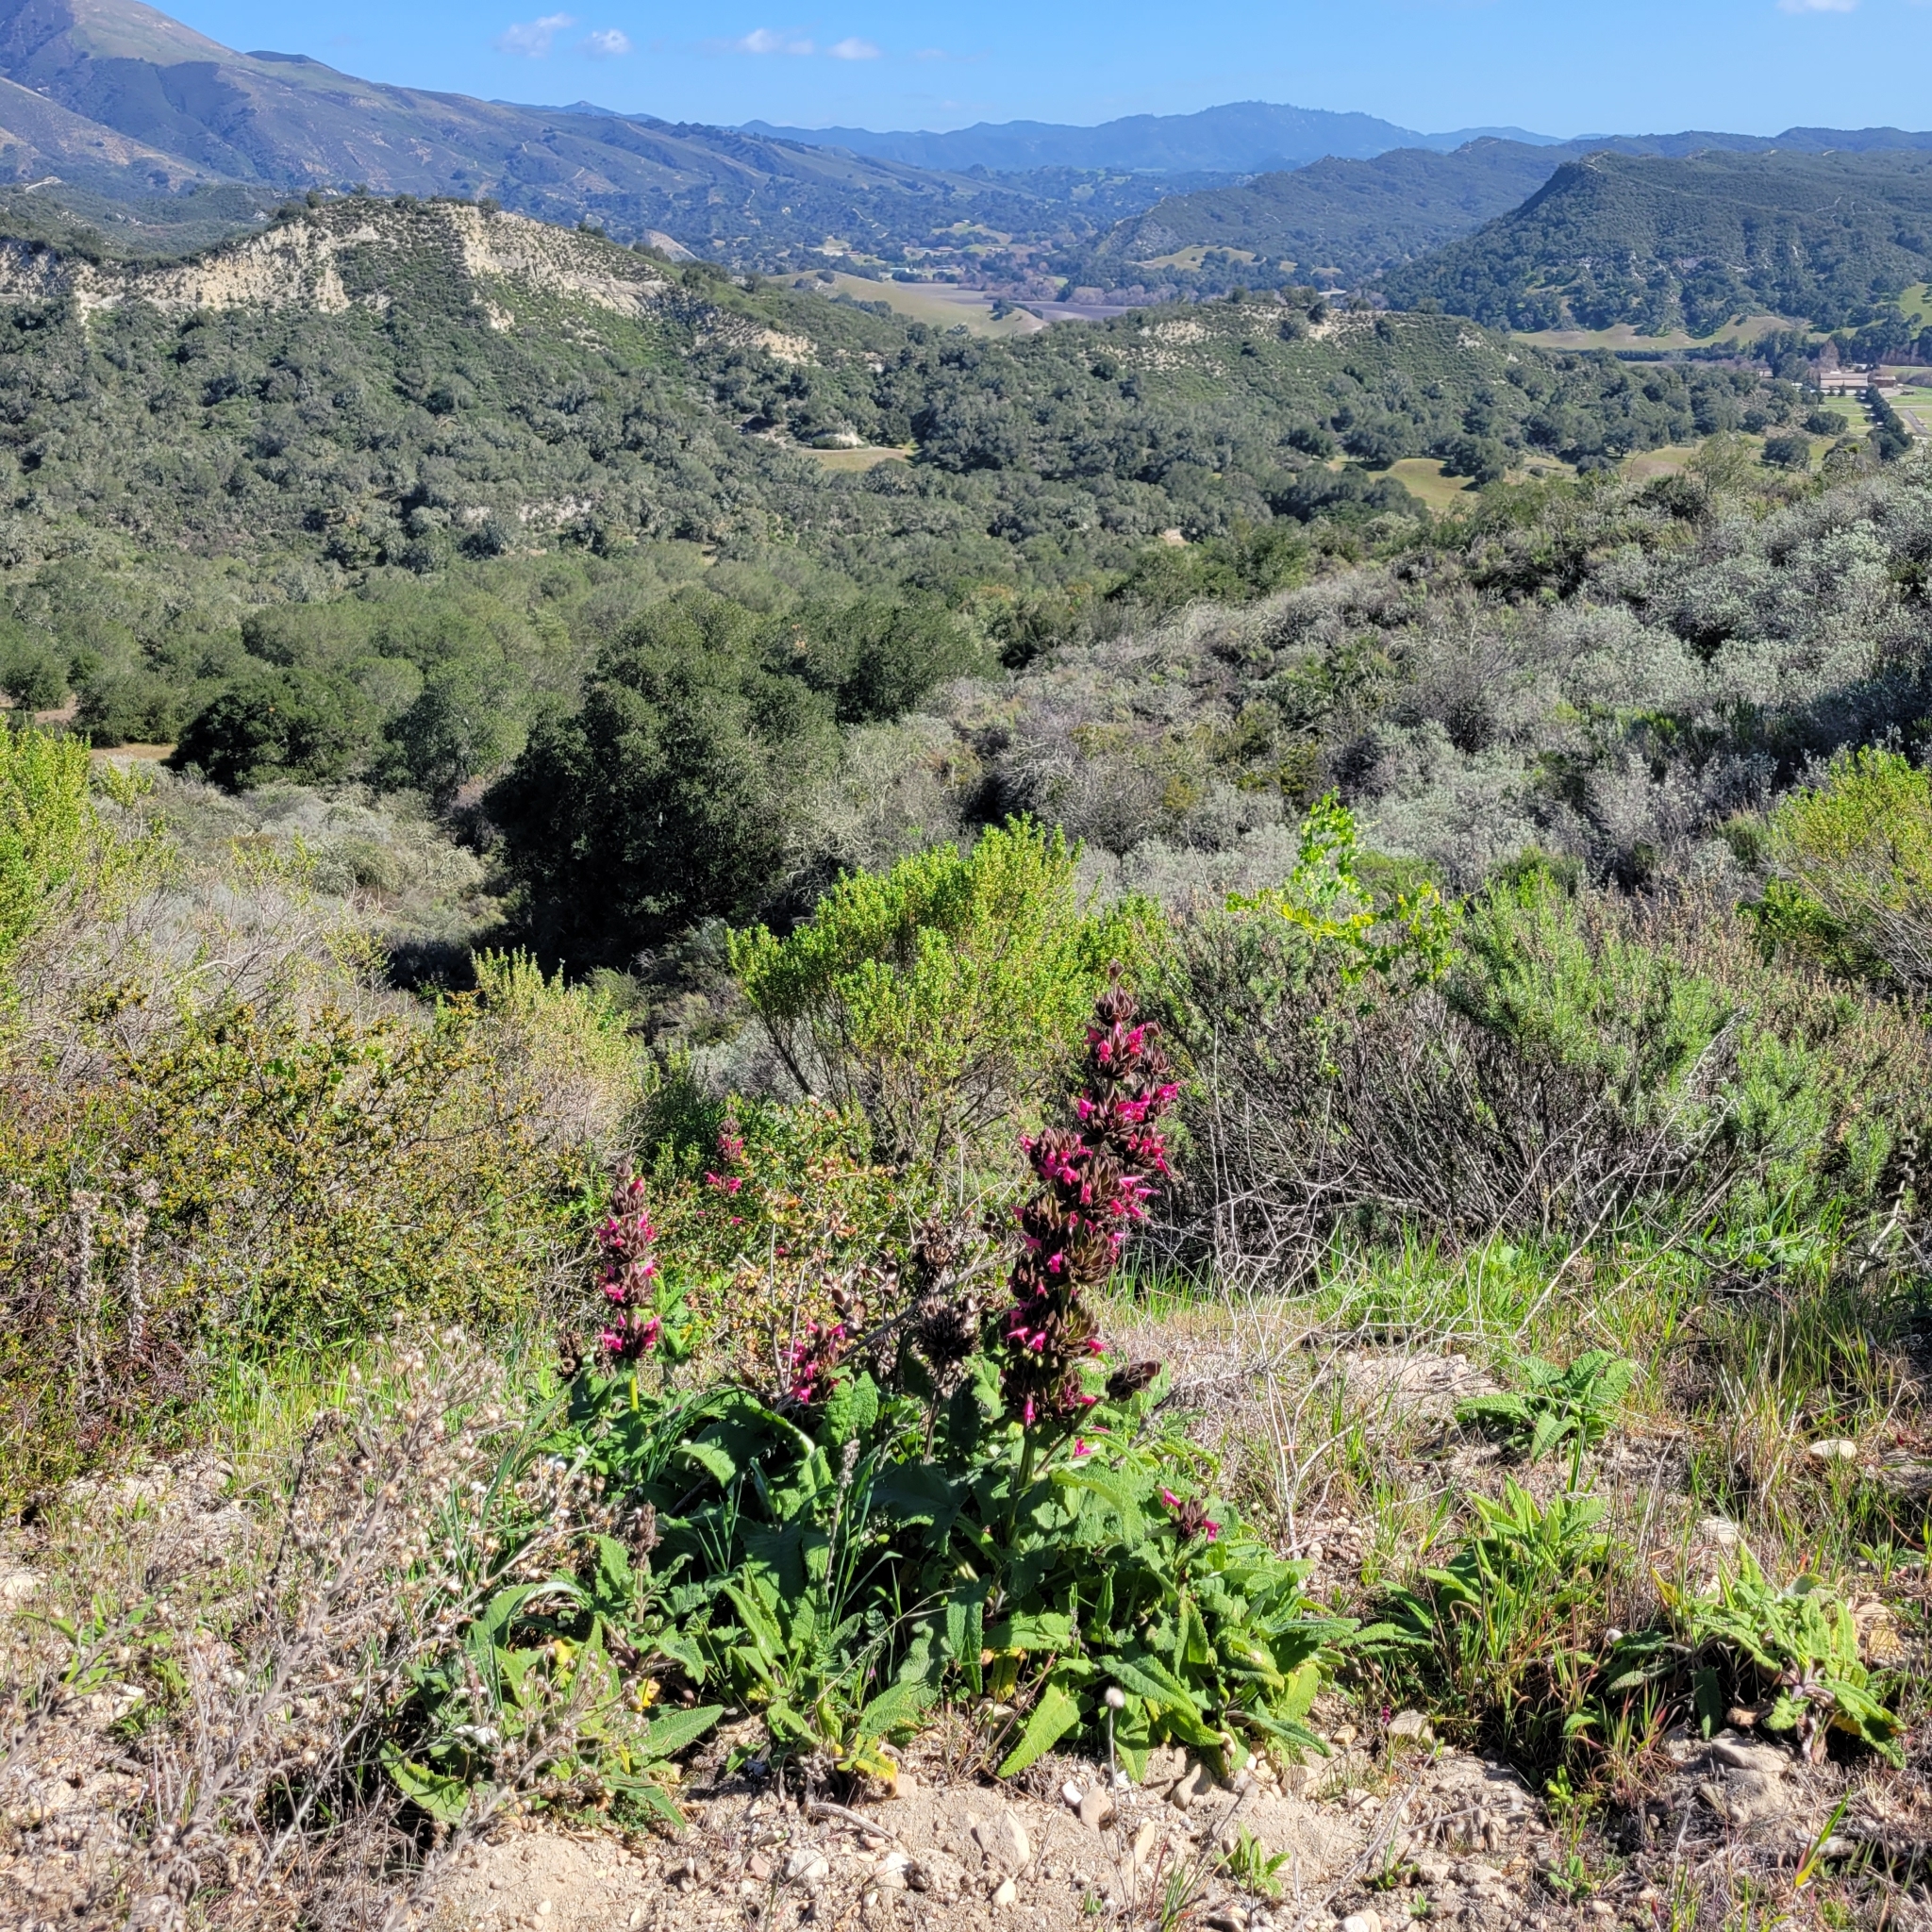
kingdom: Plantae
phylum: Tracheophyta
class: Magnoliopsida
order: Lamiales
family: Lamiaceae
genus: Salvia
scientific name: Salvia spathacea
